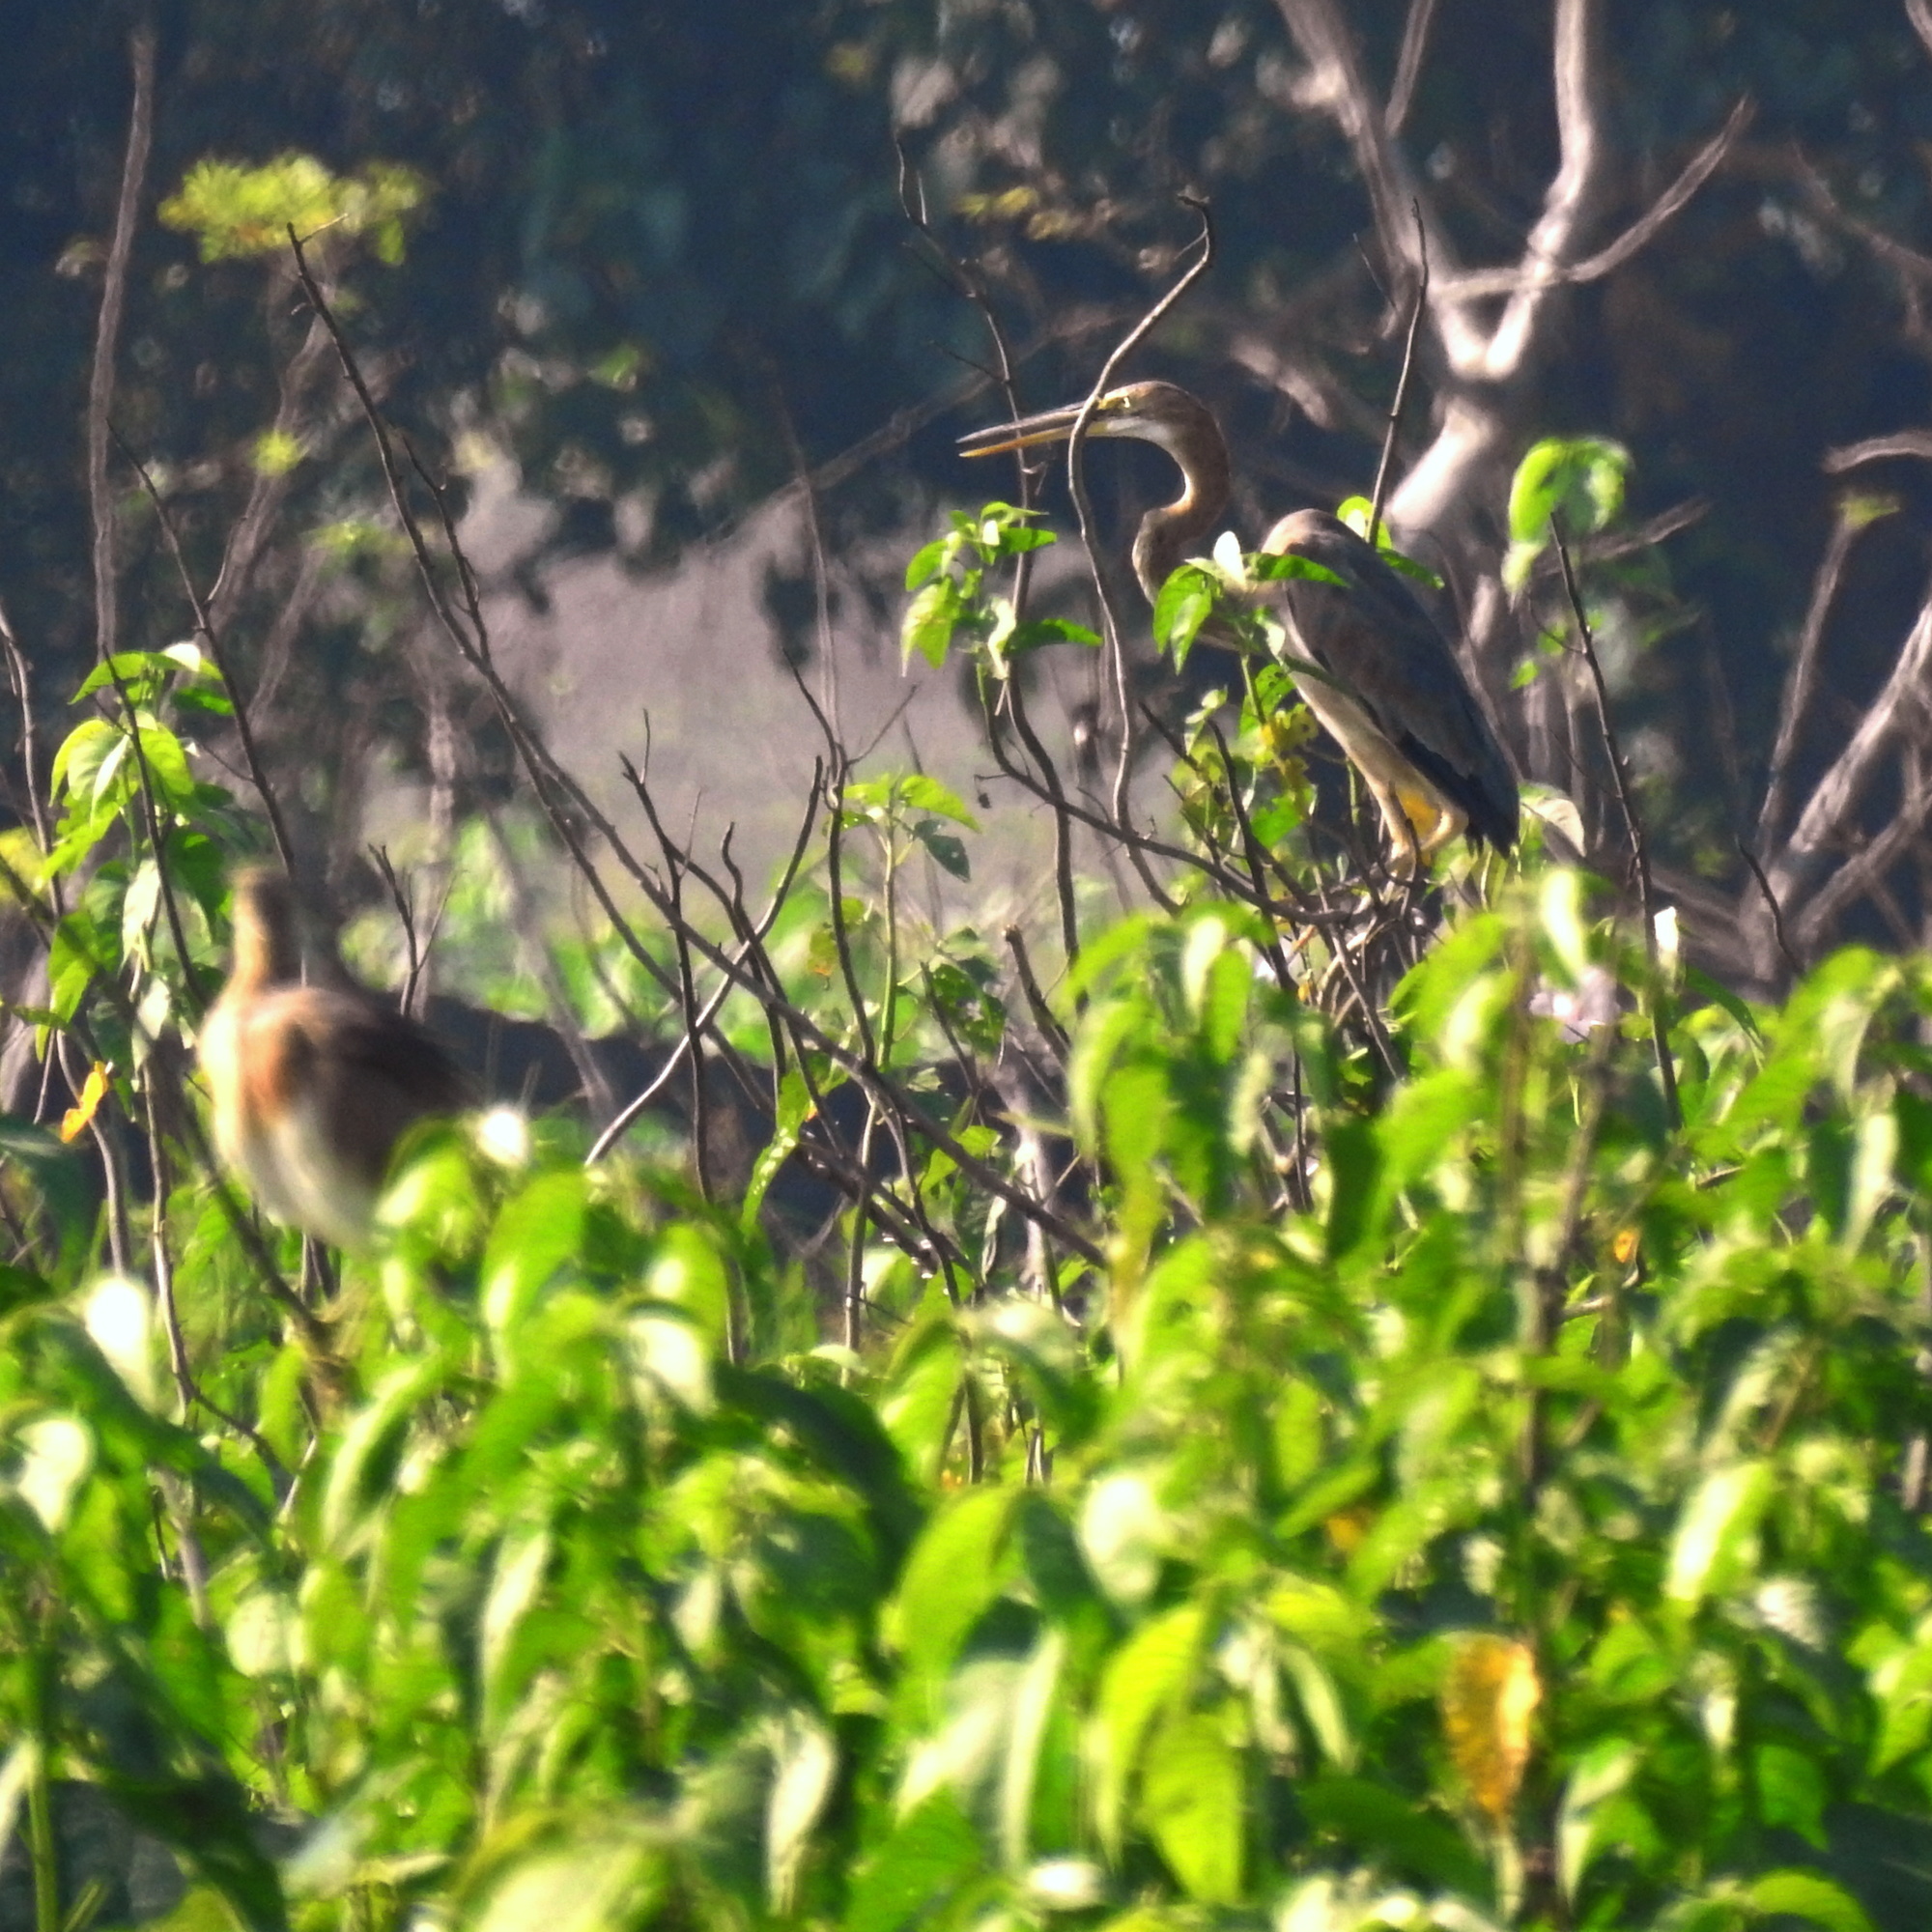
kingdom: Animalia
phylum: Chordata
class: Aves
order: Pelecaniformes
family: Ardeidae
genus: Ardea
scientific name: Ardea purpurea
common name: Purple heron
